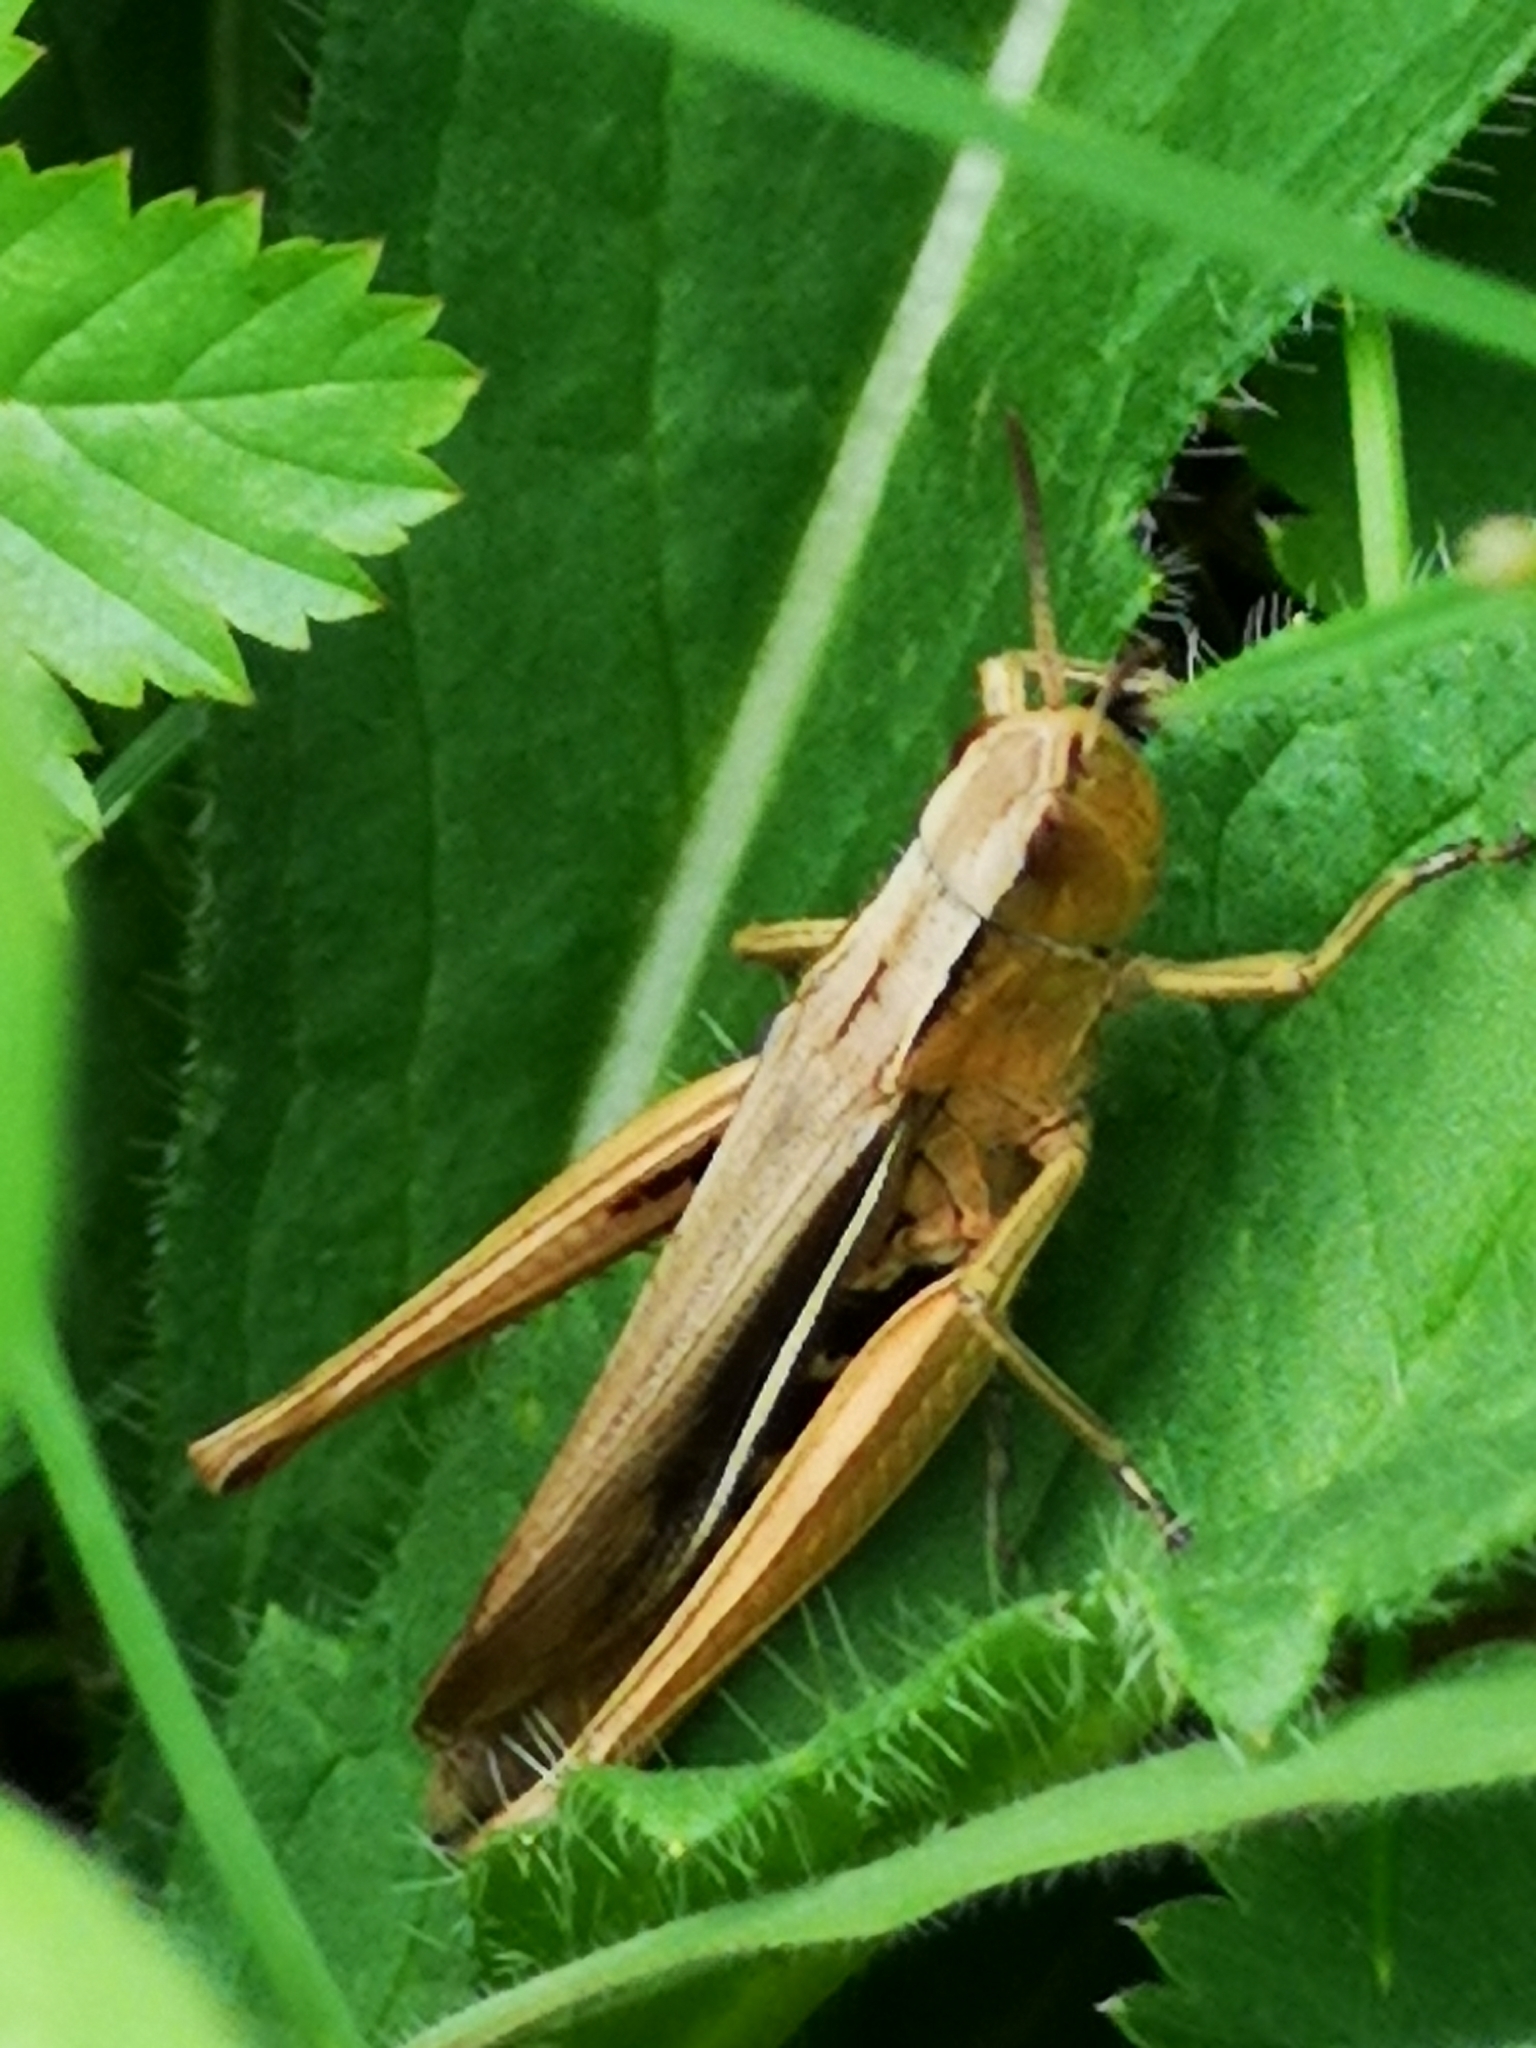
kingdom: Animalia
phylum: Arthropoda
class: Insecta
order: Orthoptera
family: Acrididae
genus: Chorthippus
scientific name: Chorthippus albomarginatus
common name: Lesser marsh grasshopper
